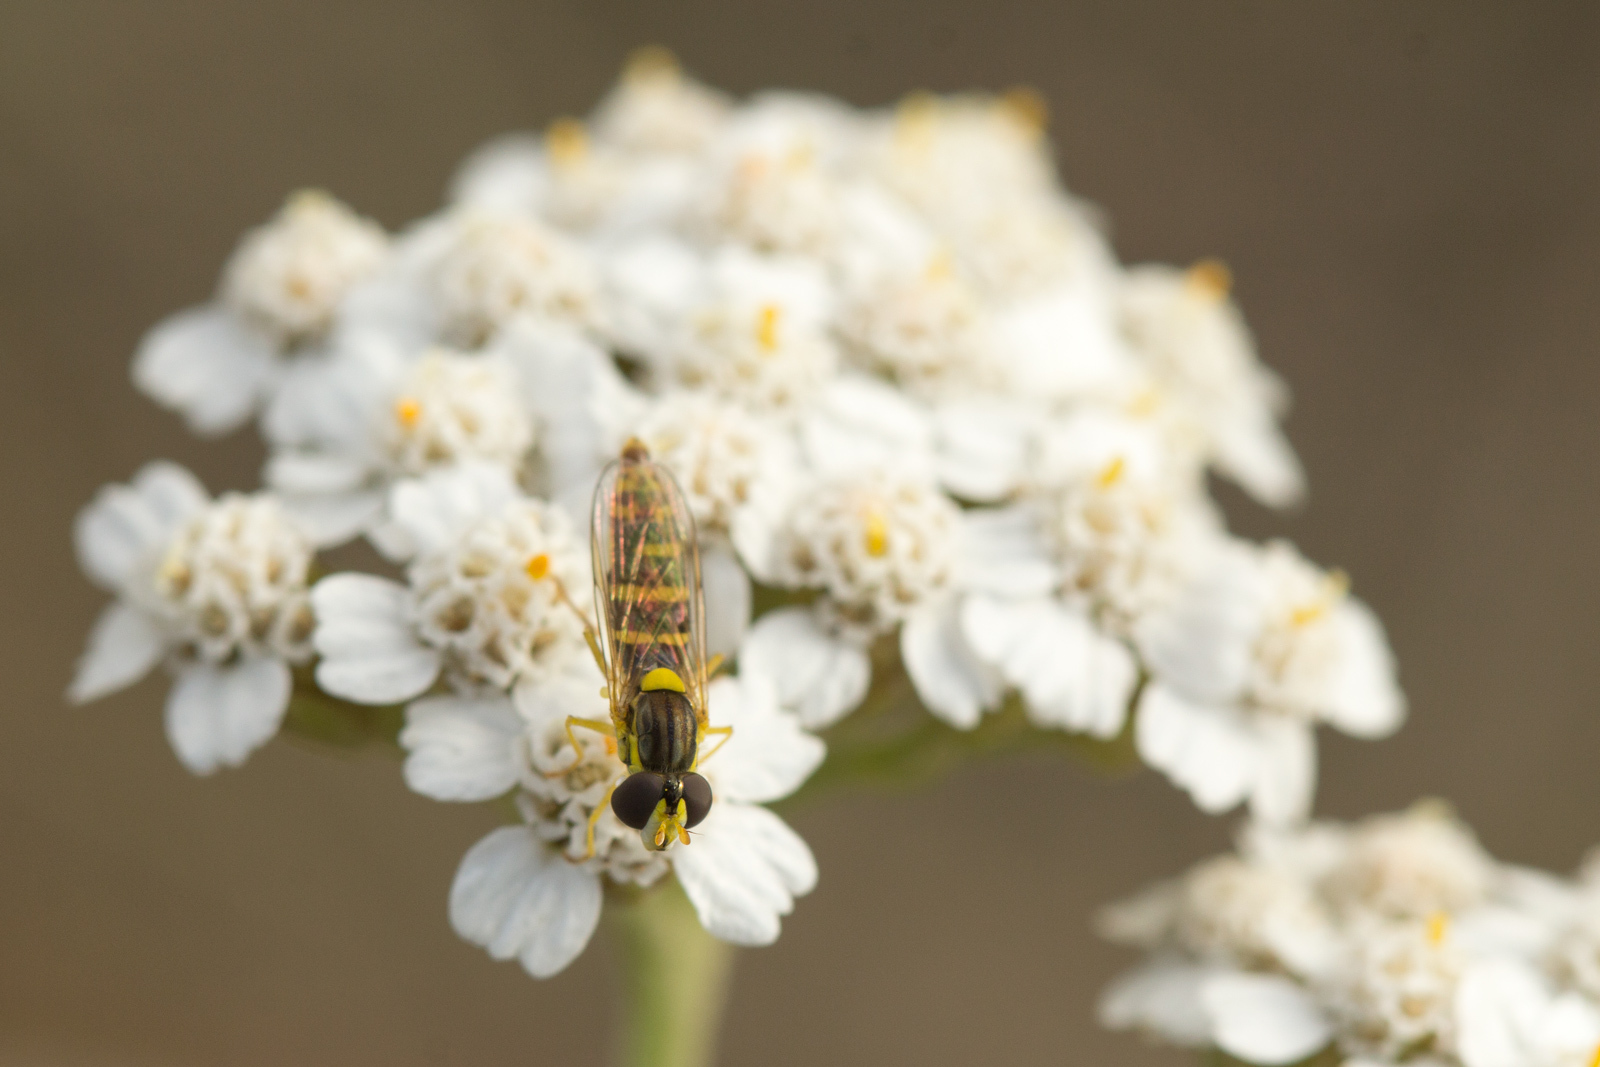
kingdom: Animalia
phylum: Arthropoda
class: Insecta
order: Diptera
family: Syrphidae
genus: Sphaerophoria
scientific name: Sphaerophoria
